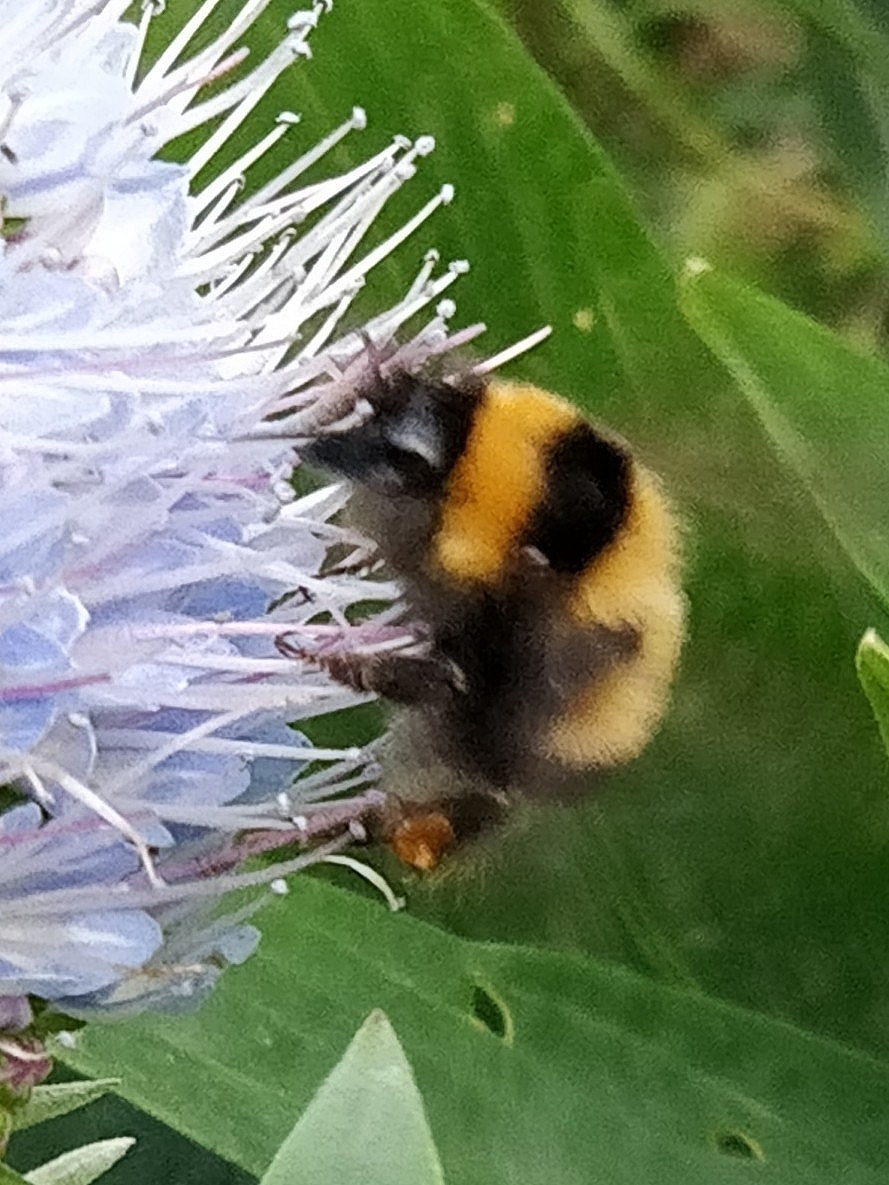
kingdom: Animalia
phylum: Arthropoda
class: Insecta
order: Hymenoptera
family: Apidae
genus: Bombus
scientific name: Bombus ruderatus
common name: Large garden bumblebee
